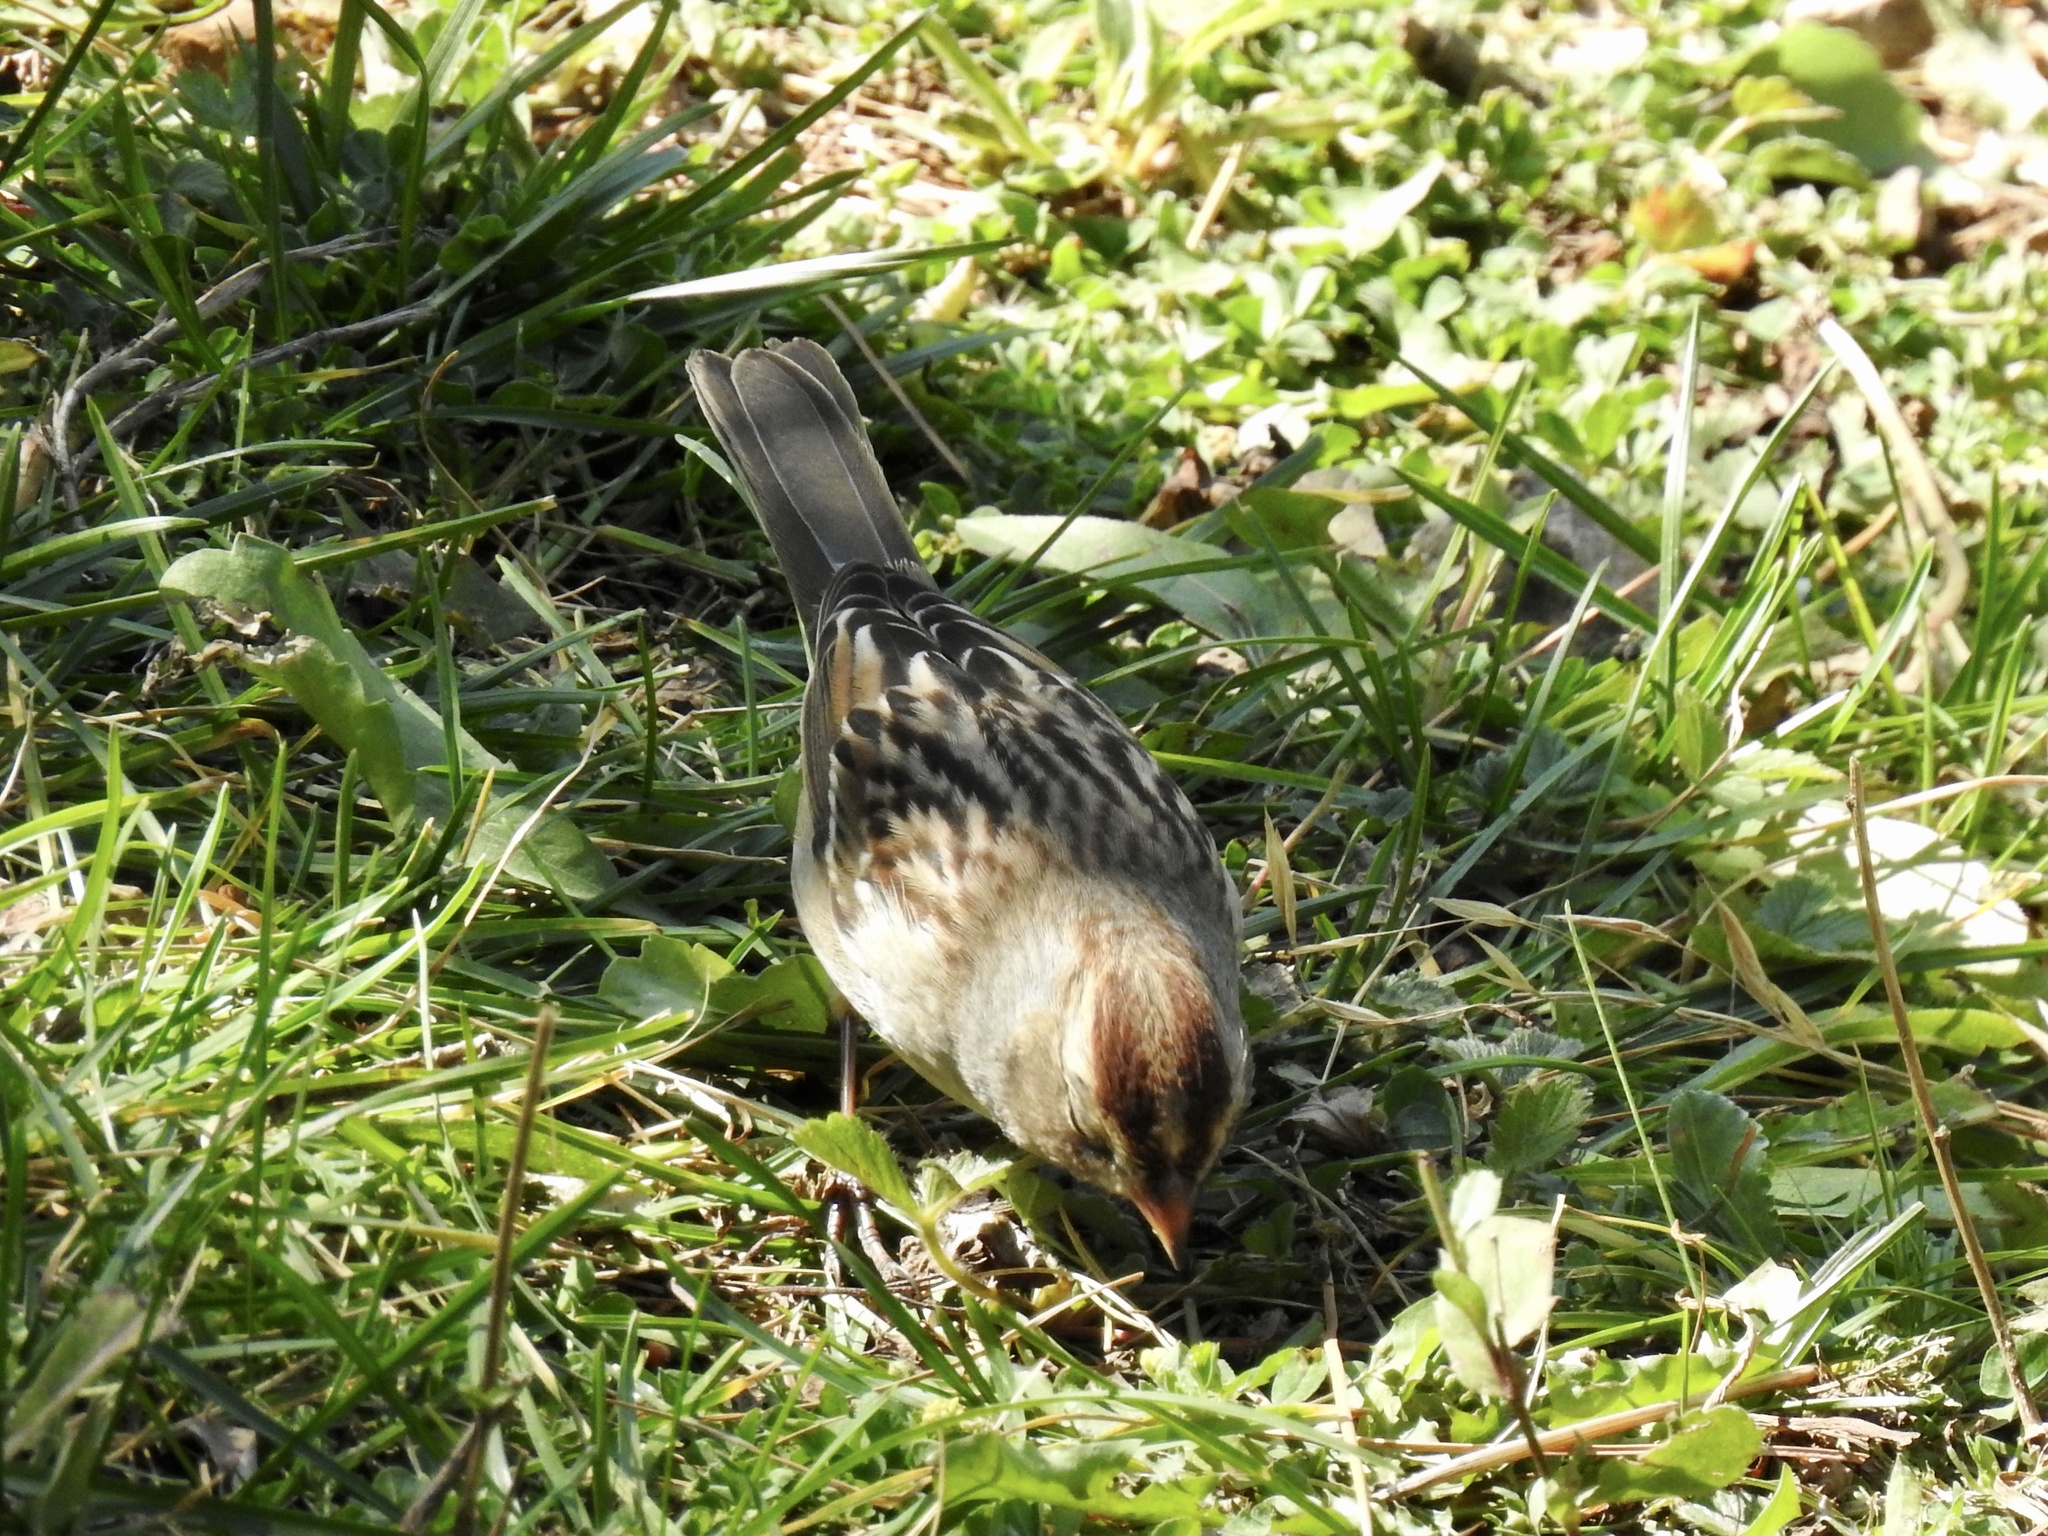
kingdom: Animalia
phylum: Chordata
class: Aves
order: Passeriformes
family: Passerellidae
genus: Zonotrichia
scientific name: Zonotrichia leucophrys
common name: White-crowned sparrow
